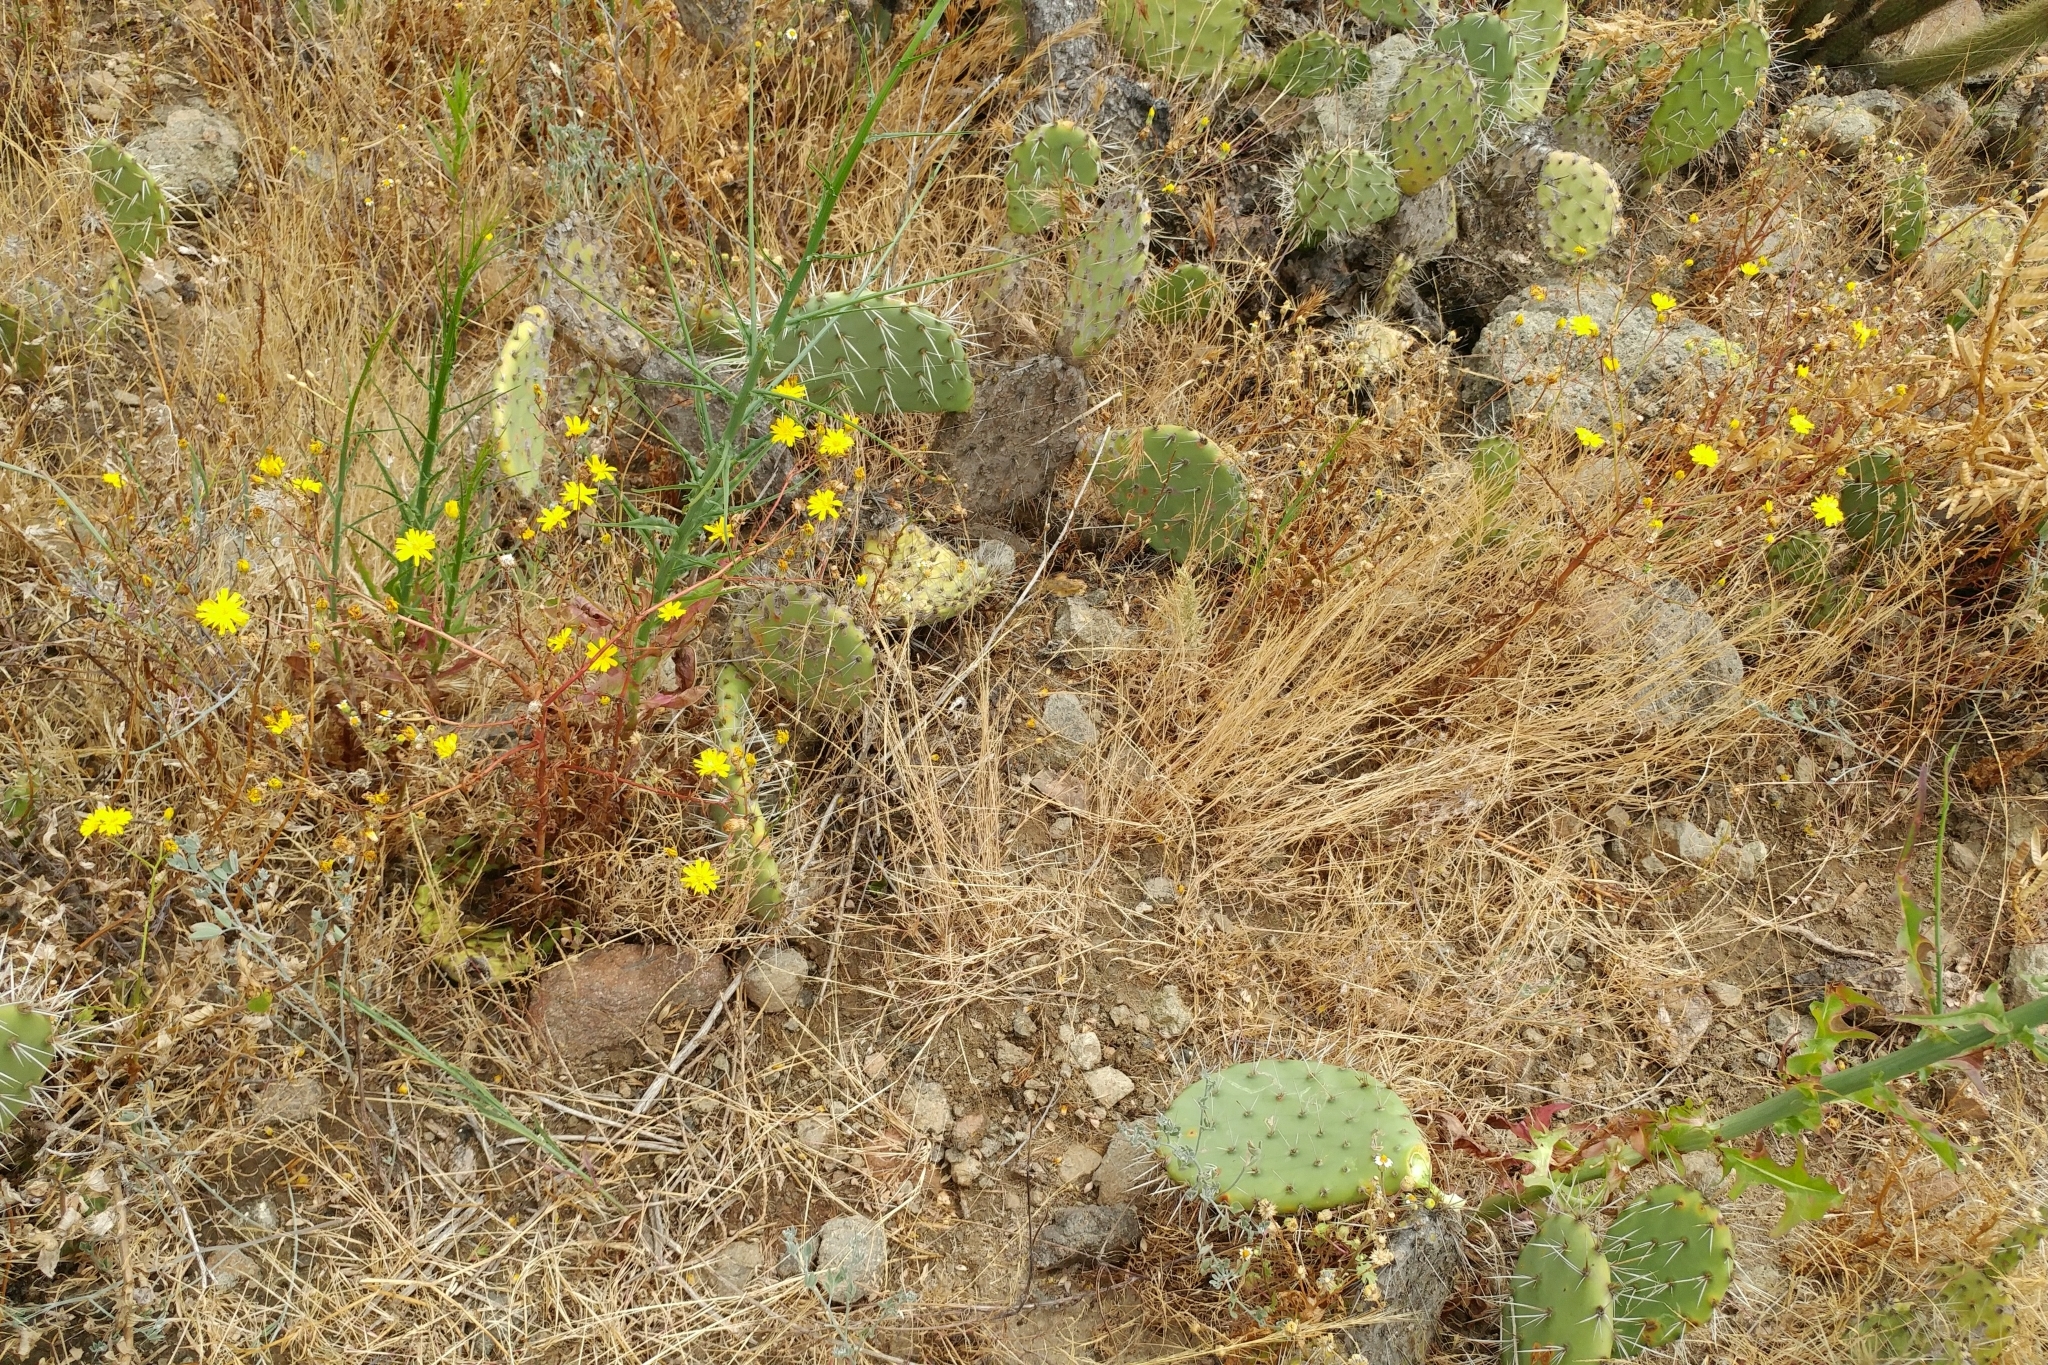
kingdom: Plantae
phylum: Tracheophyta
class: Magnoliopsida
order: Asterales
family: Asteraceae
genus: Malacothrix
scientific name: Malacothrix foliosa
